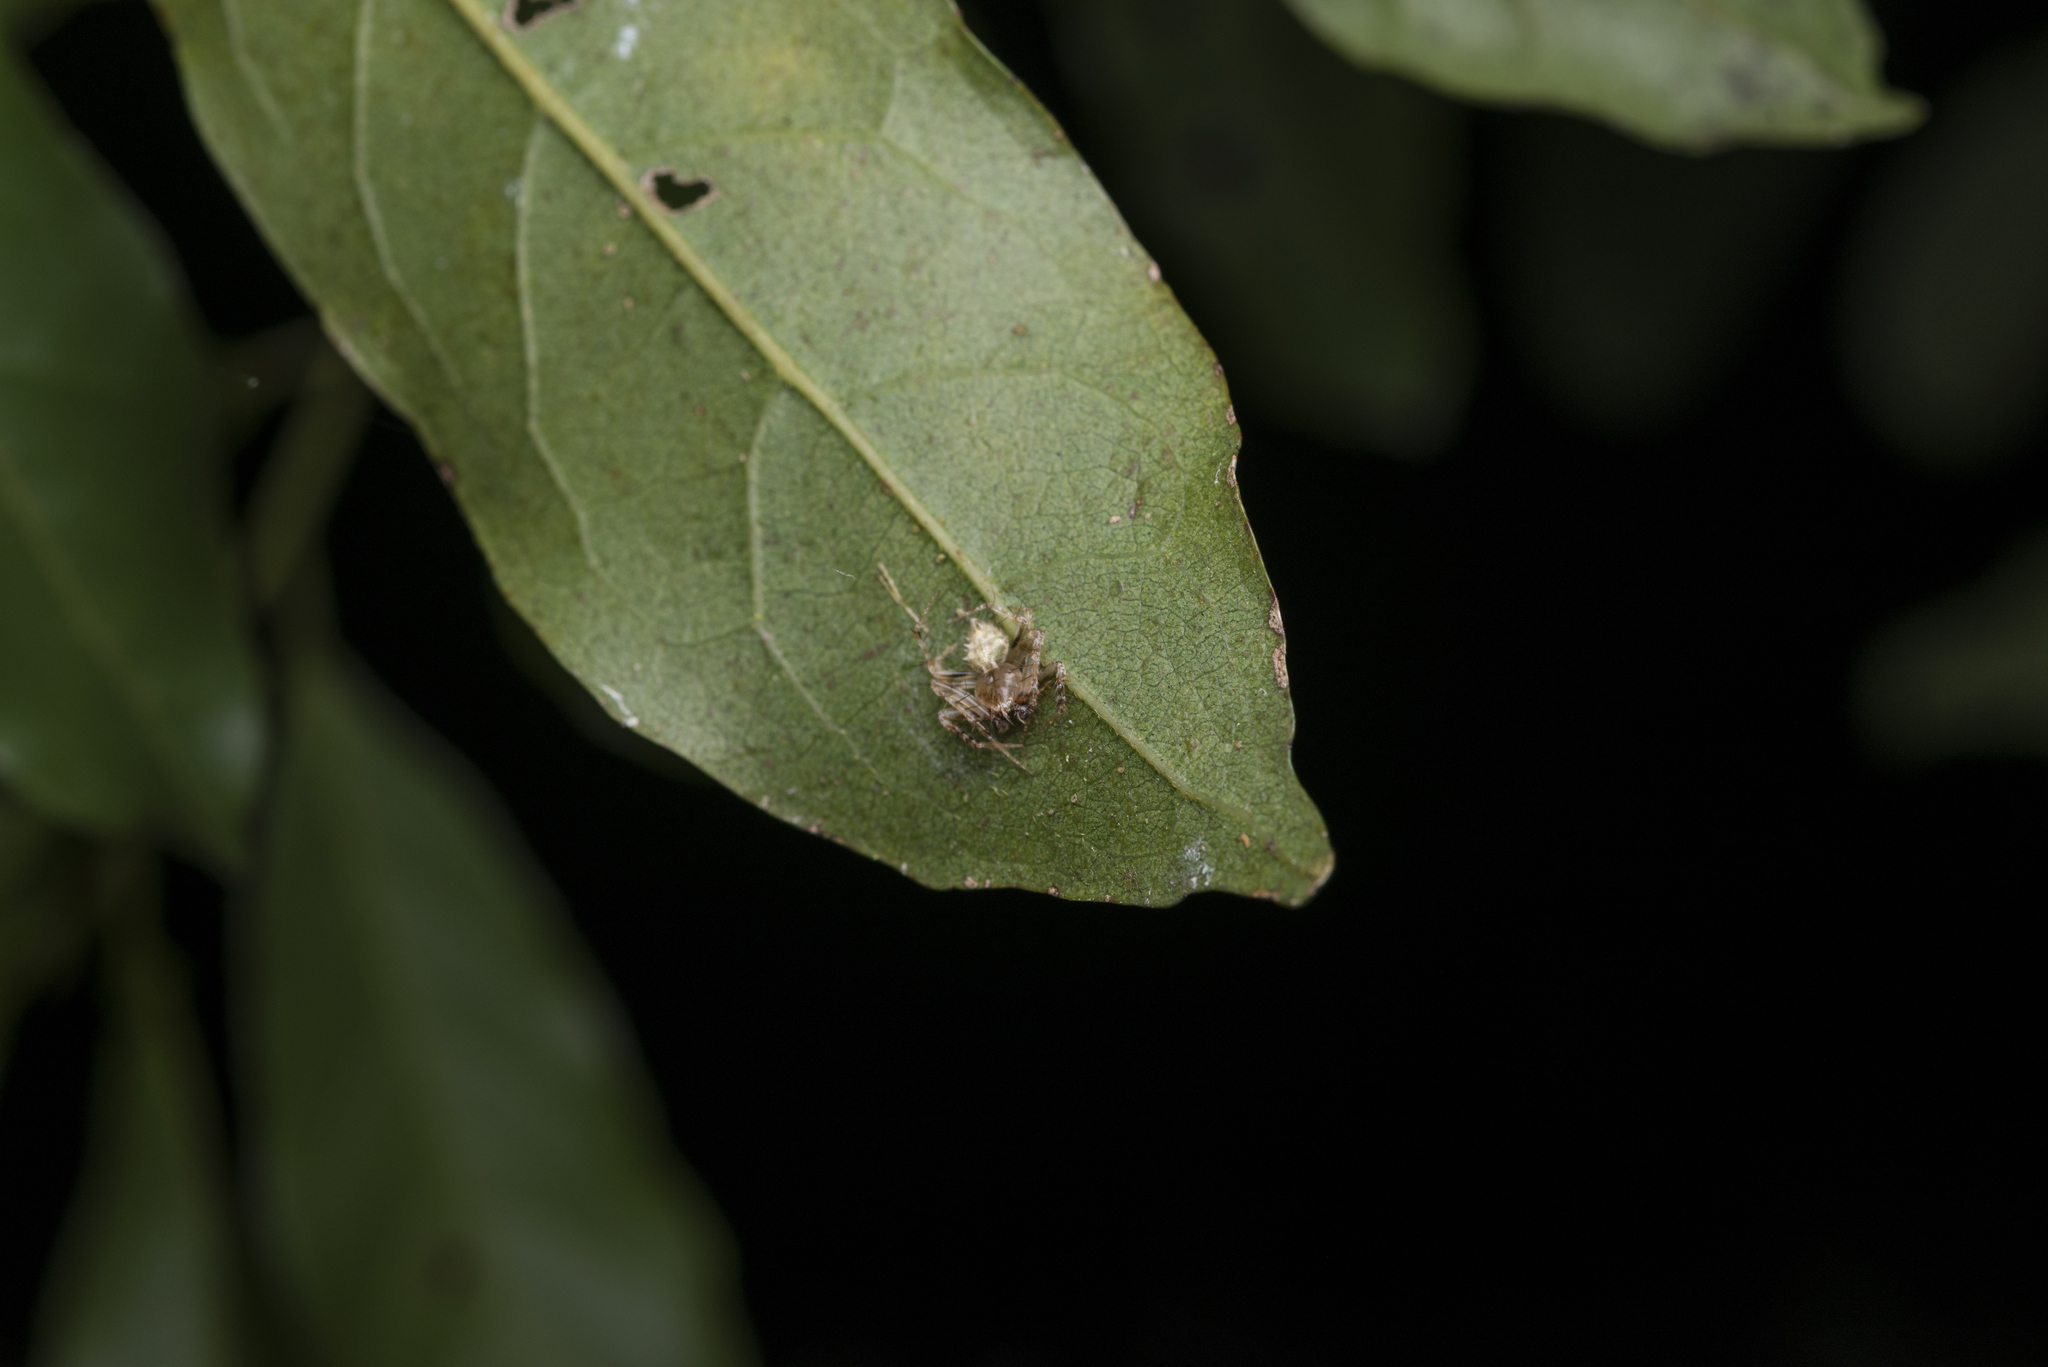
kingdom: Animalia
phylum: Arthropoda
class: Arachnida
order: Araneae
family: Araneidae
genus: Eriovixia
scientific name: Eriovixia laglaizei
